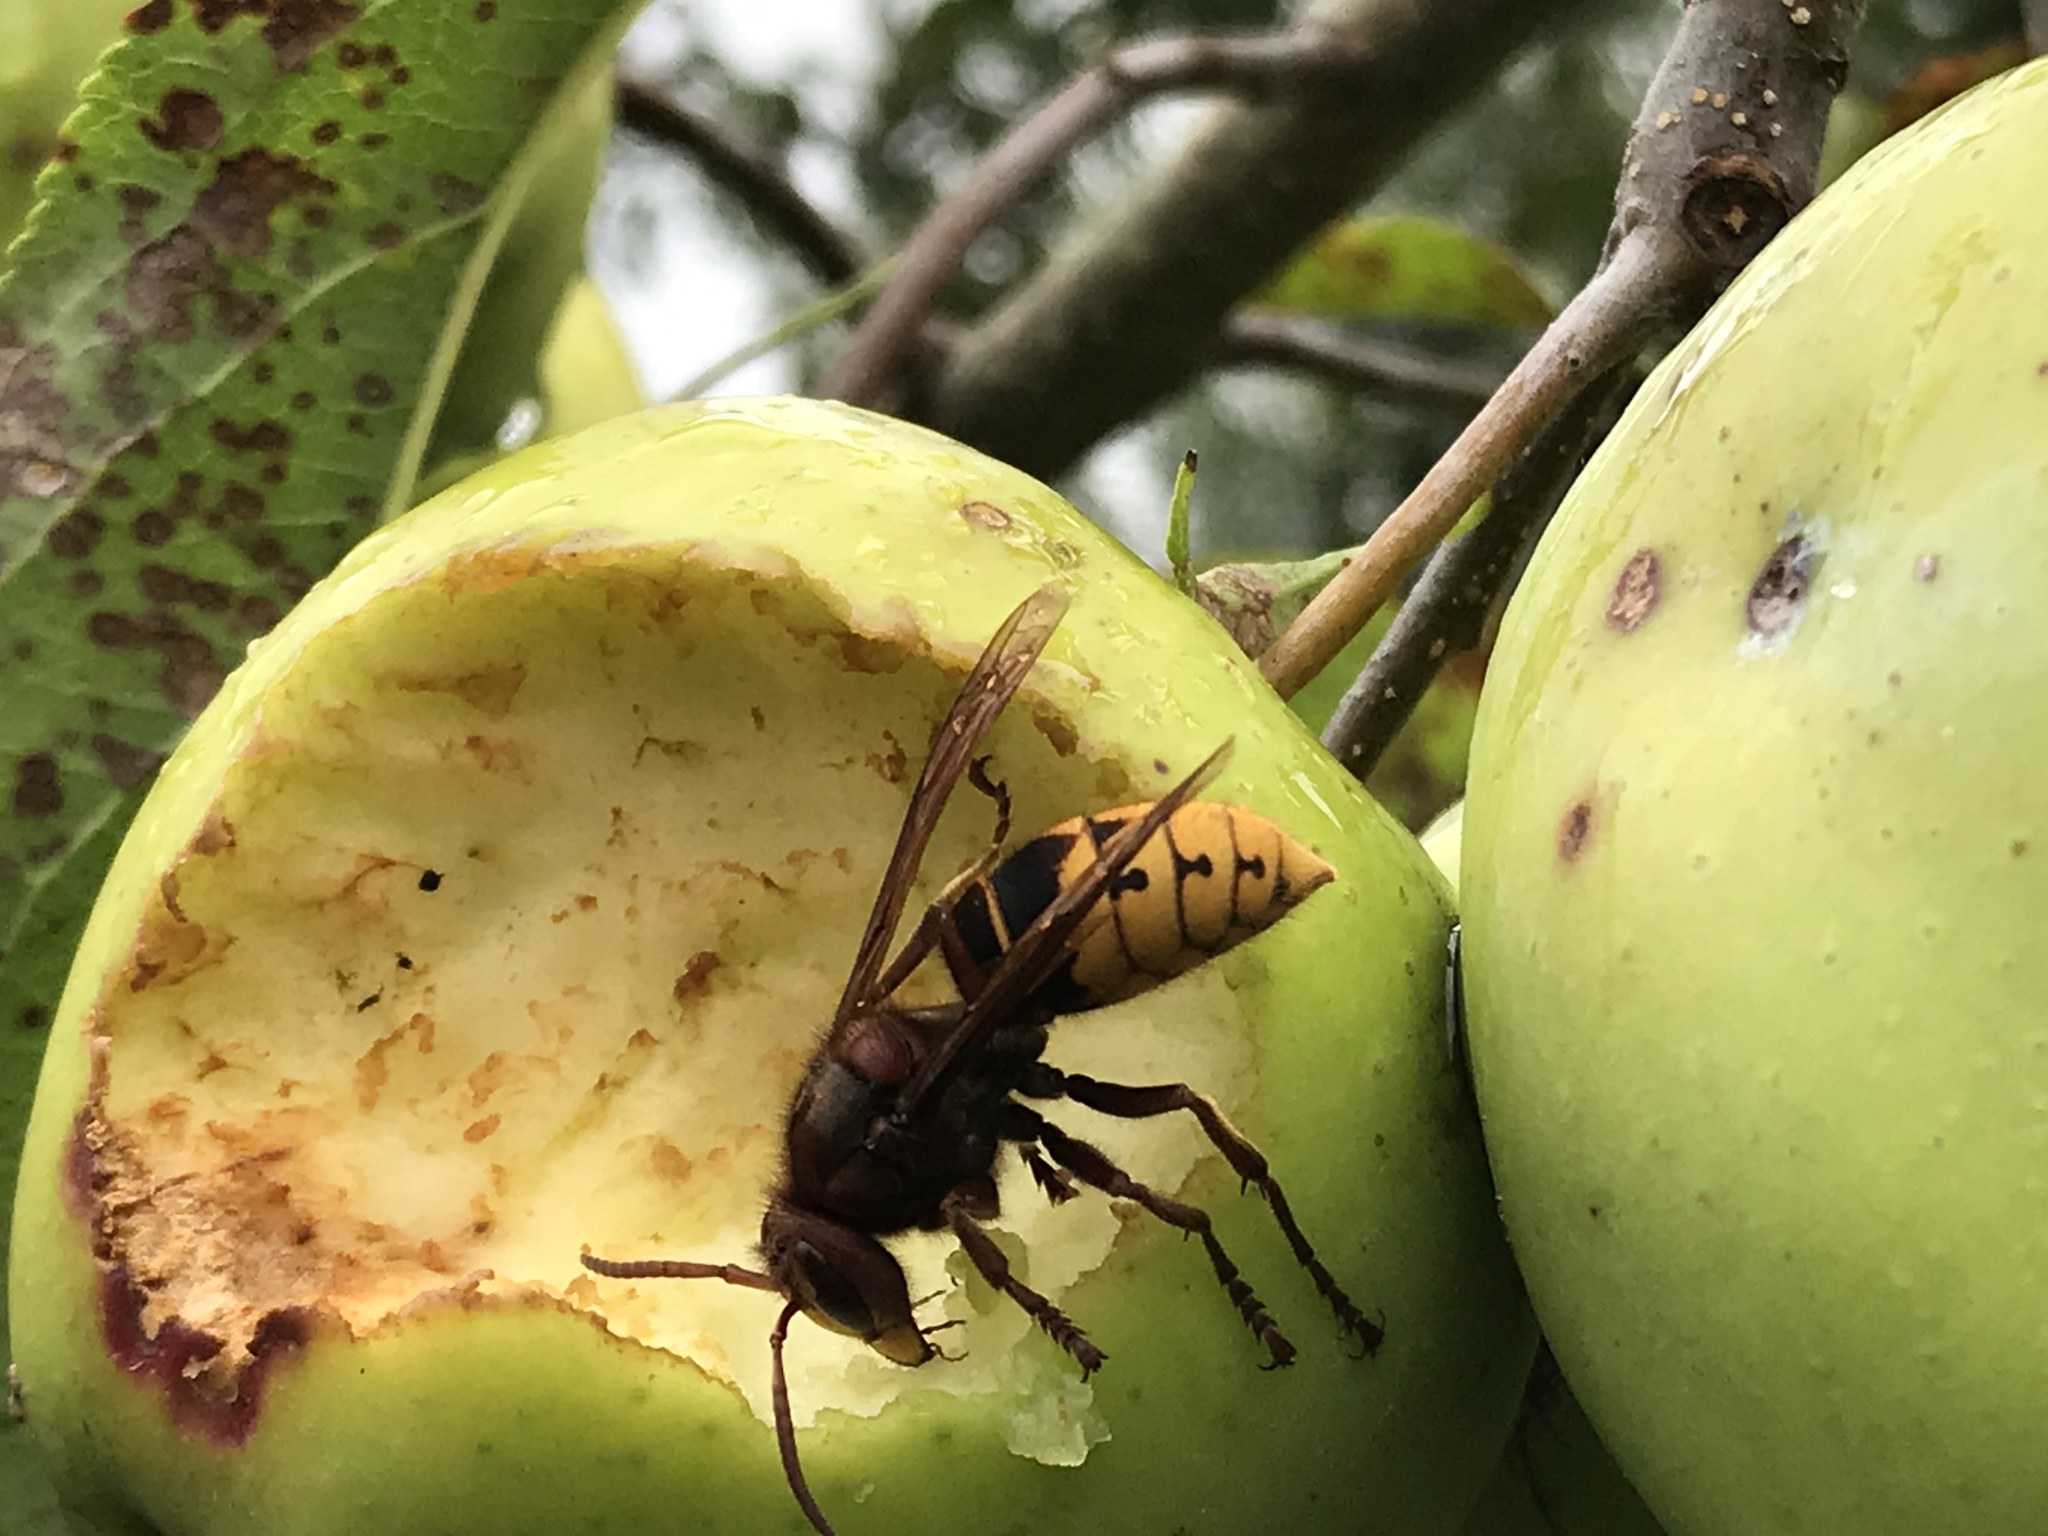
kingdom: Animalia
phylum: Arthropoda
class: Insecta
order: Hymenoptera
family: Vespidae
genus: Vespa
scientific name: Vespa crabro
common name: Hornet
